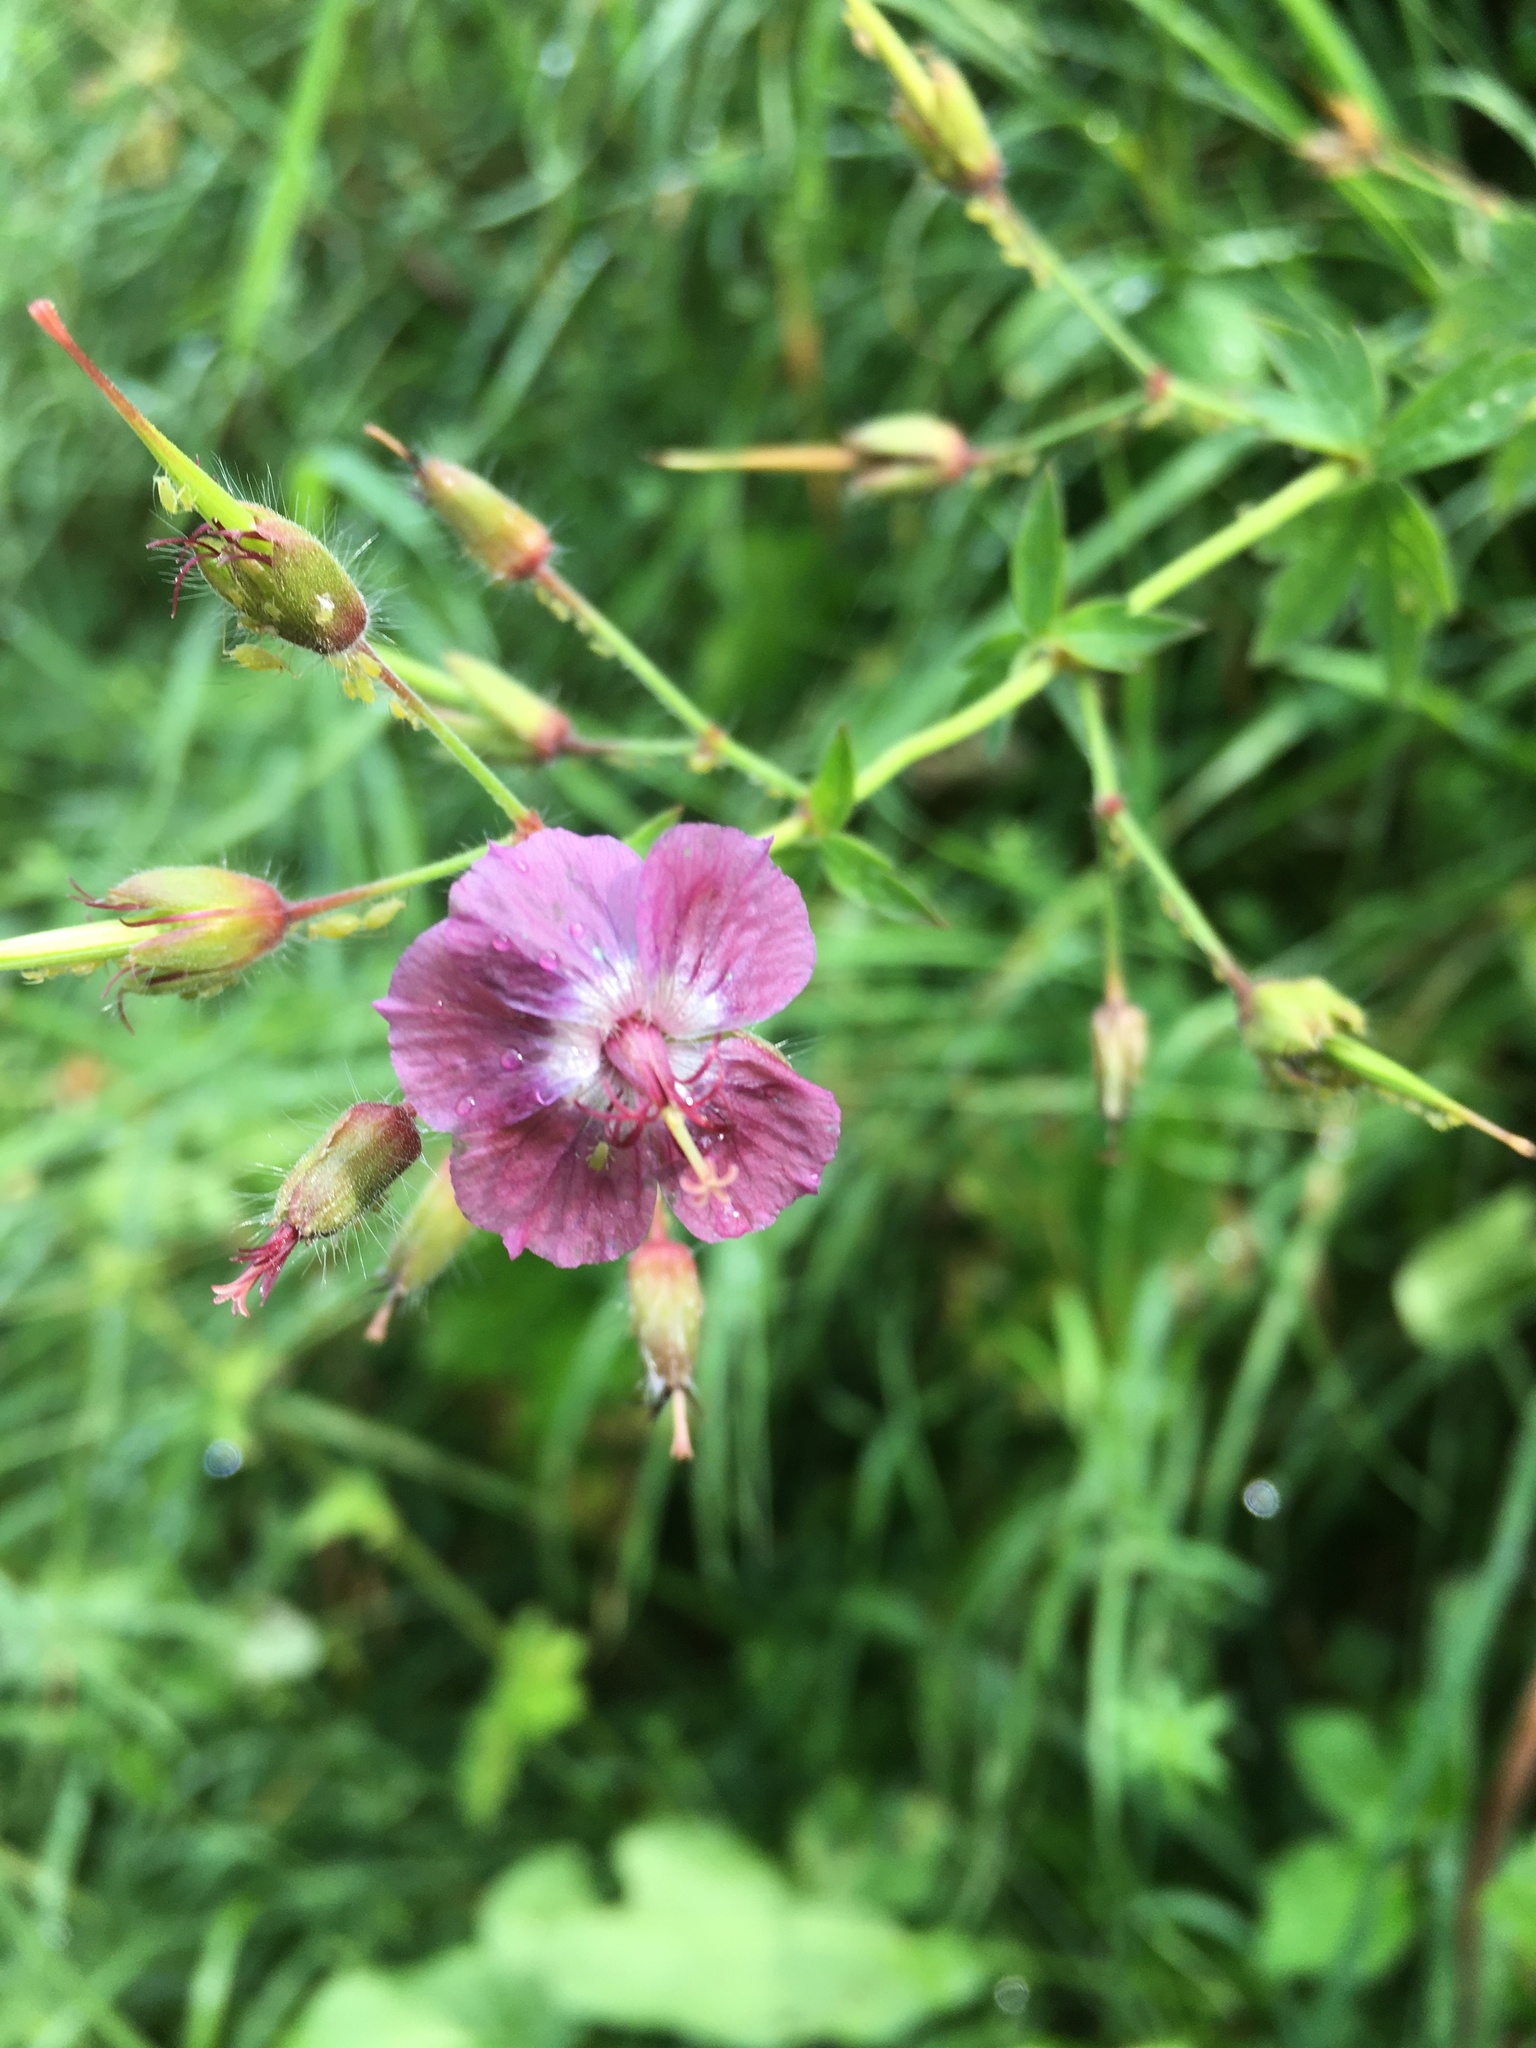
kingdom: Plantae
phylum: Tracheophyta
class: Magnoliopsida
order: Geraniales
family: Geraniaceae
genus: Geranium
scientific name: Geranium phaeum
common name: Dusky crane's-bill
